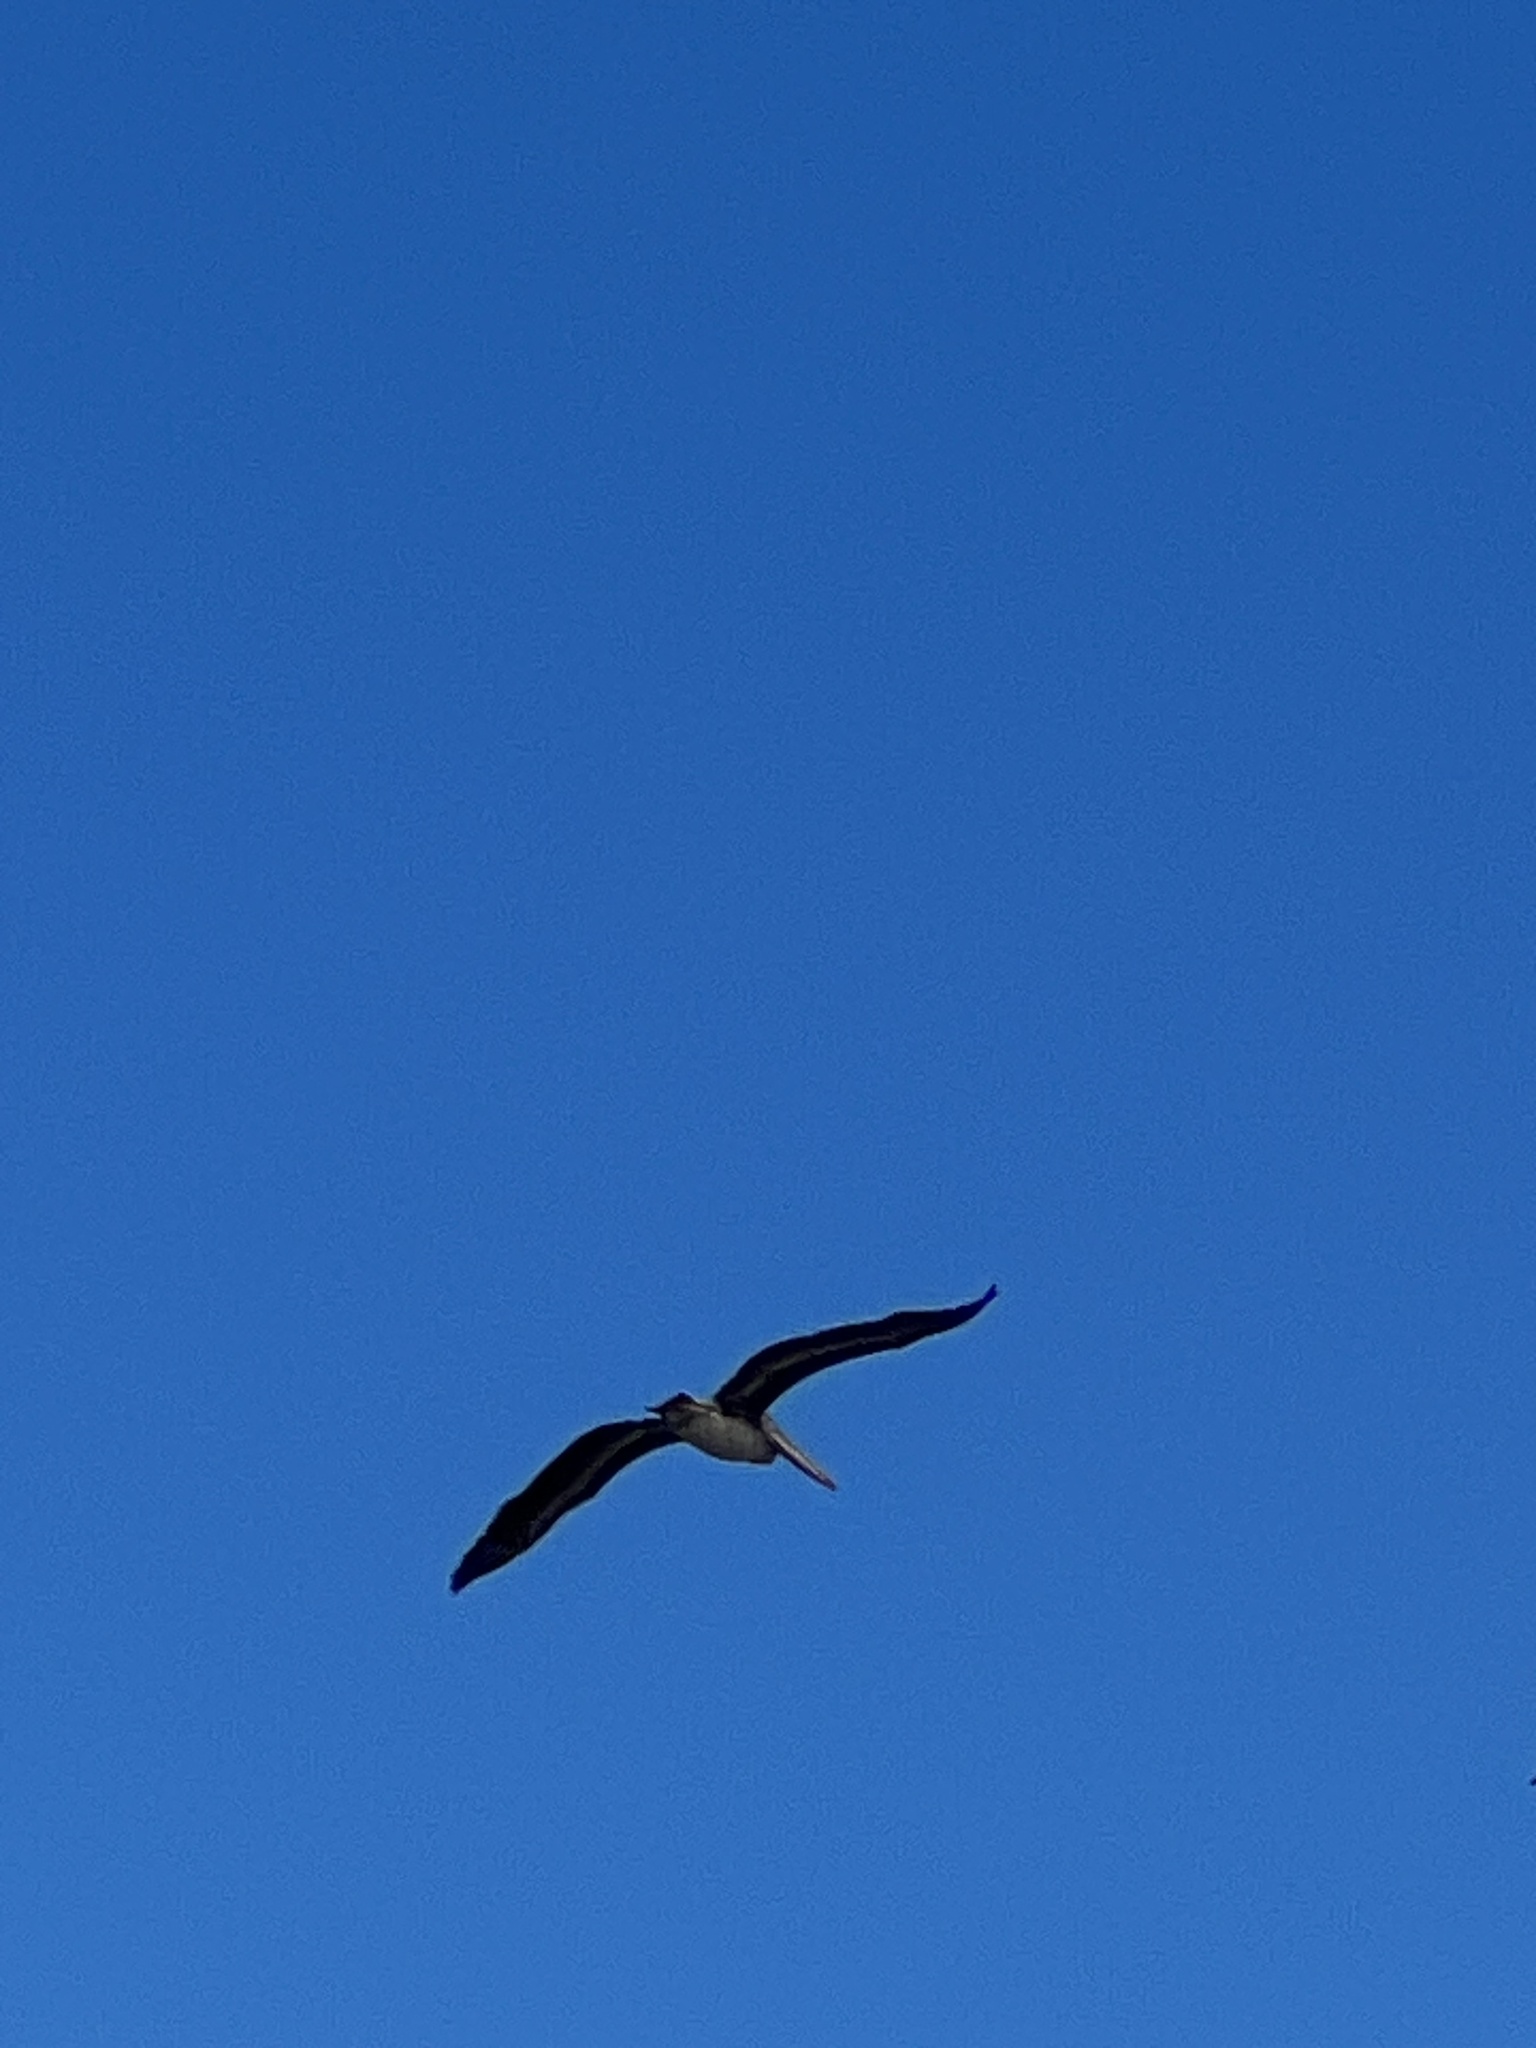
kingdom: Animalia
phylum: Chordata
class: Aves
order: Pelecaniformes
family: Pelecanidae
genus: Pelecanus
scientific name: Pelecanus occidentalis
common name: Brown pelican
